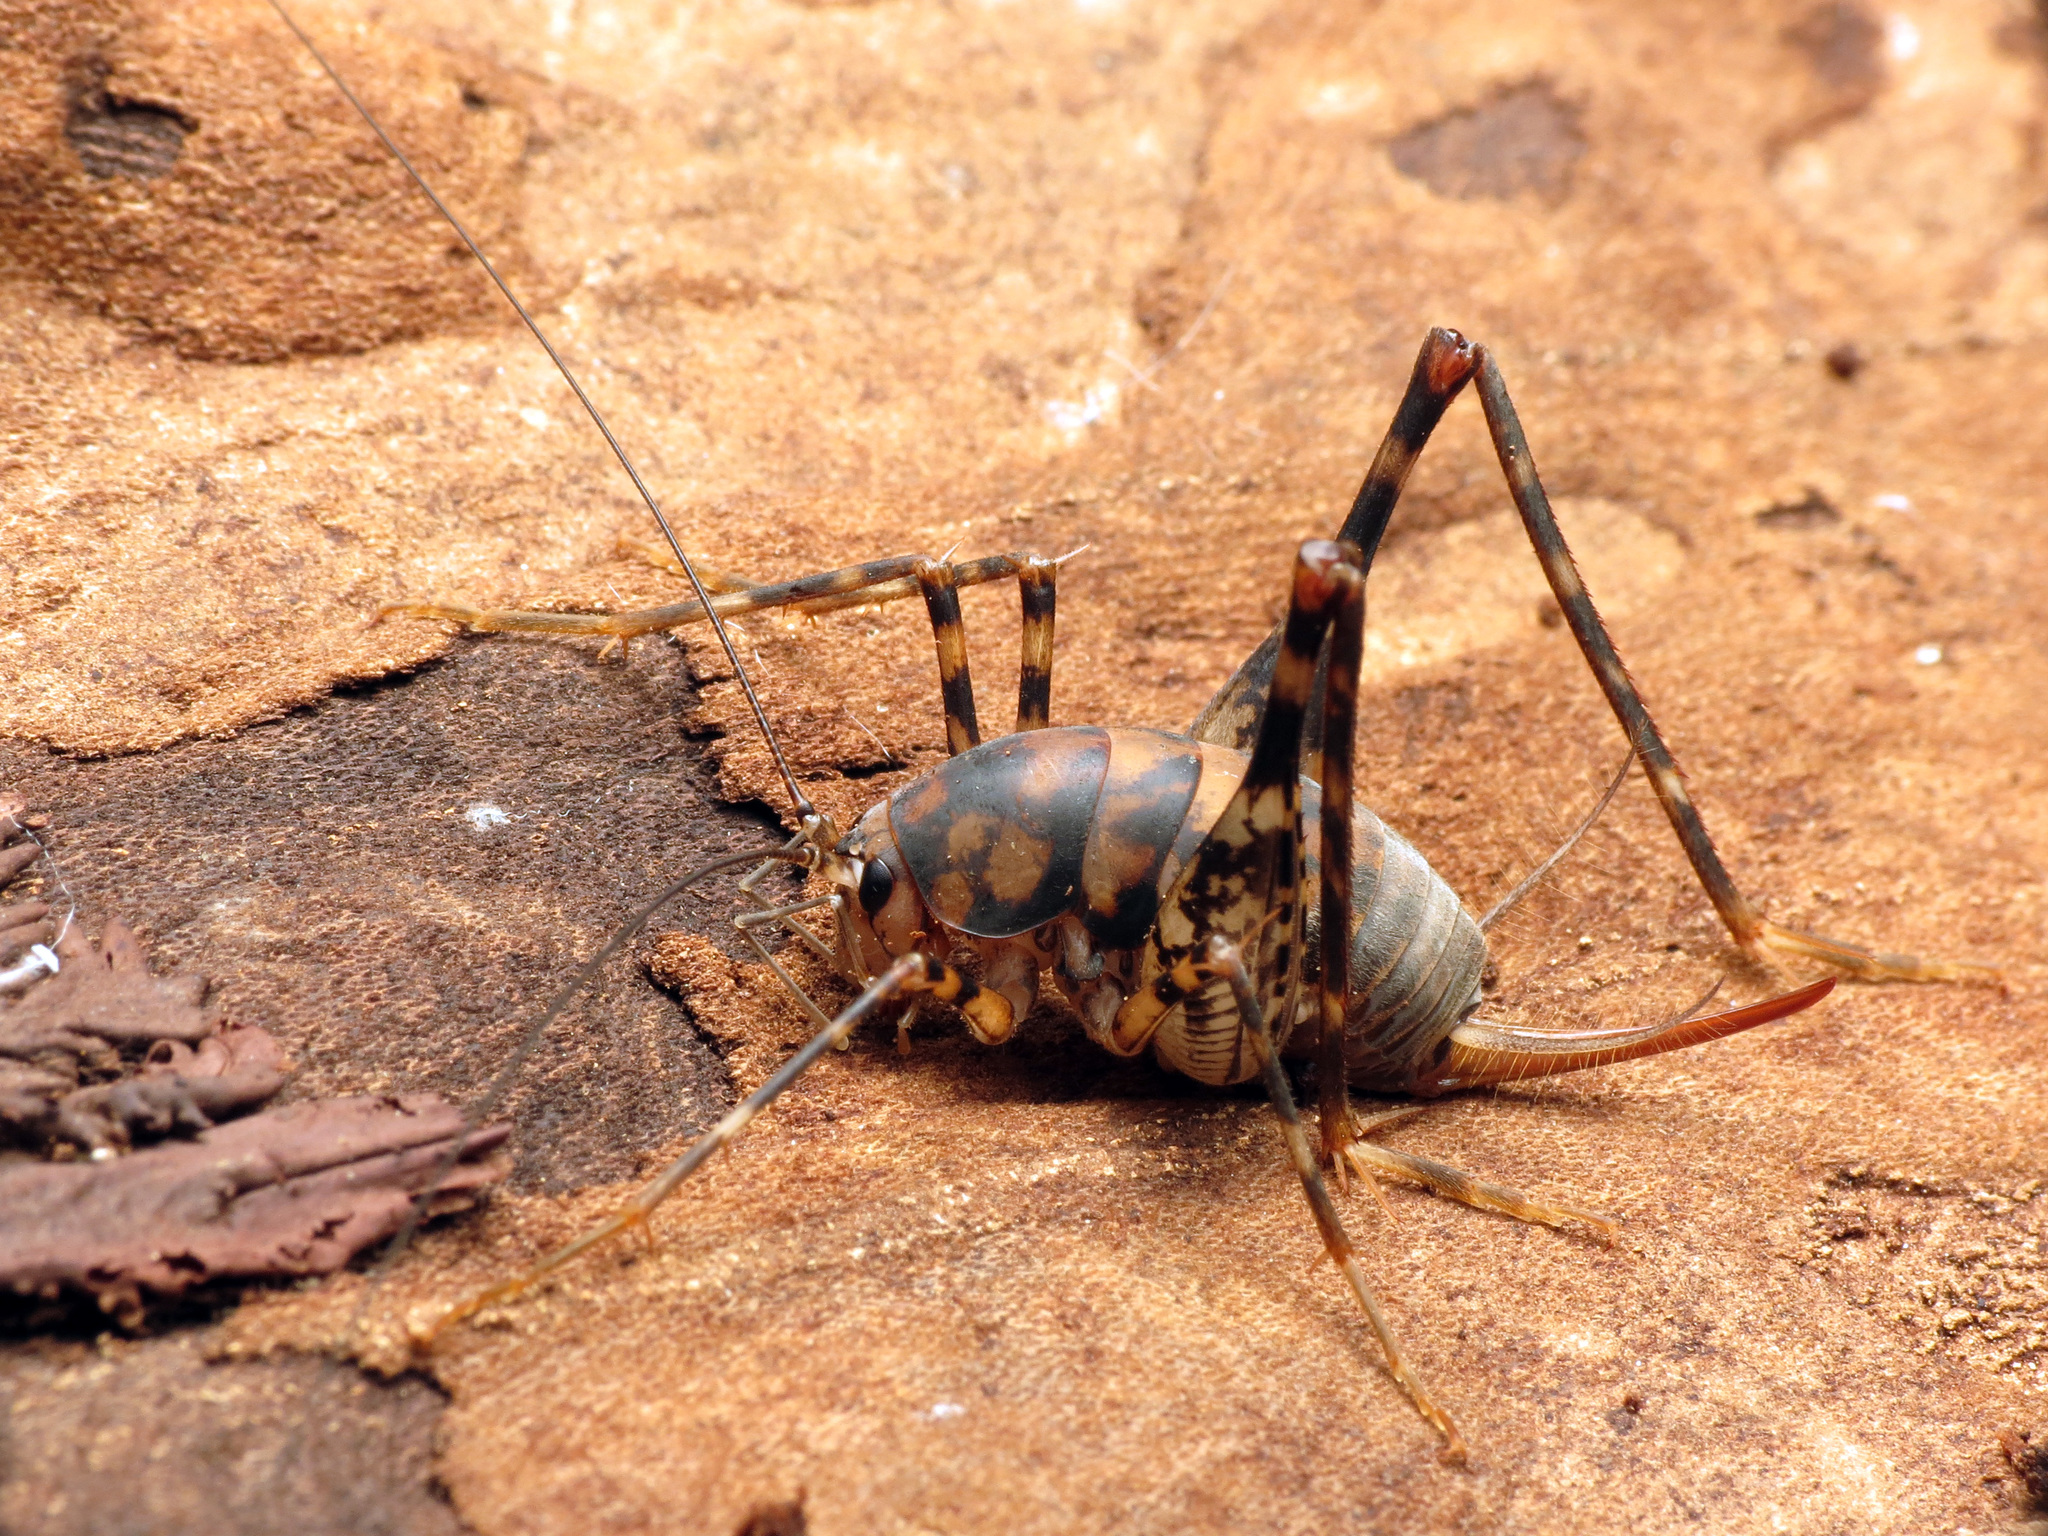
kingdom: Animalia
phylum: Arthropoda
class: Insecta
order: Orthoptera
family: Rhaphidophoridae
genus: Tachycines
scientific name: Tachycines asynamorus
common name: Greenhouse camel cricket
